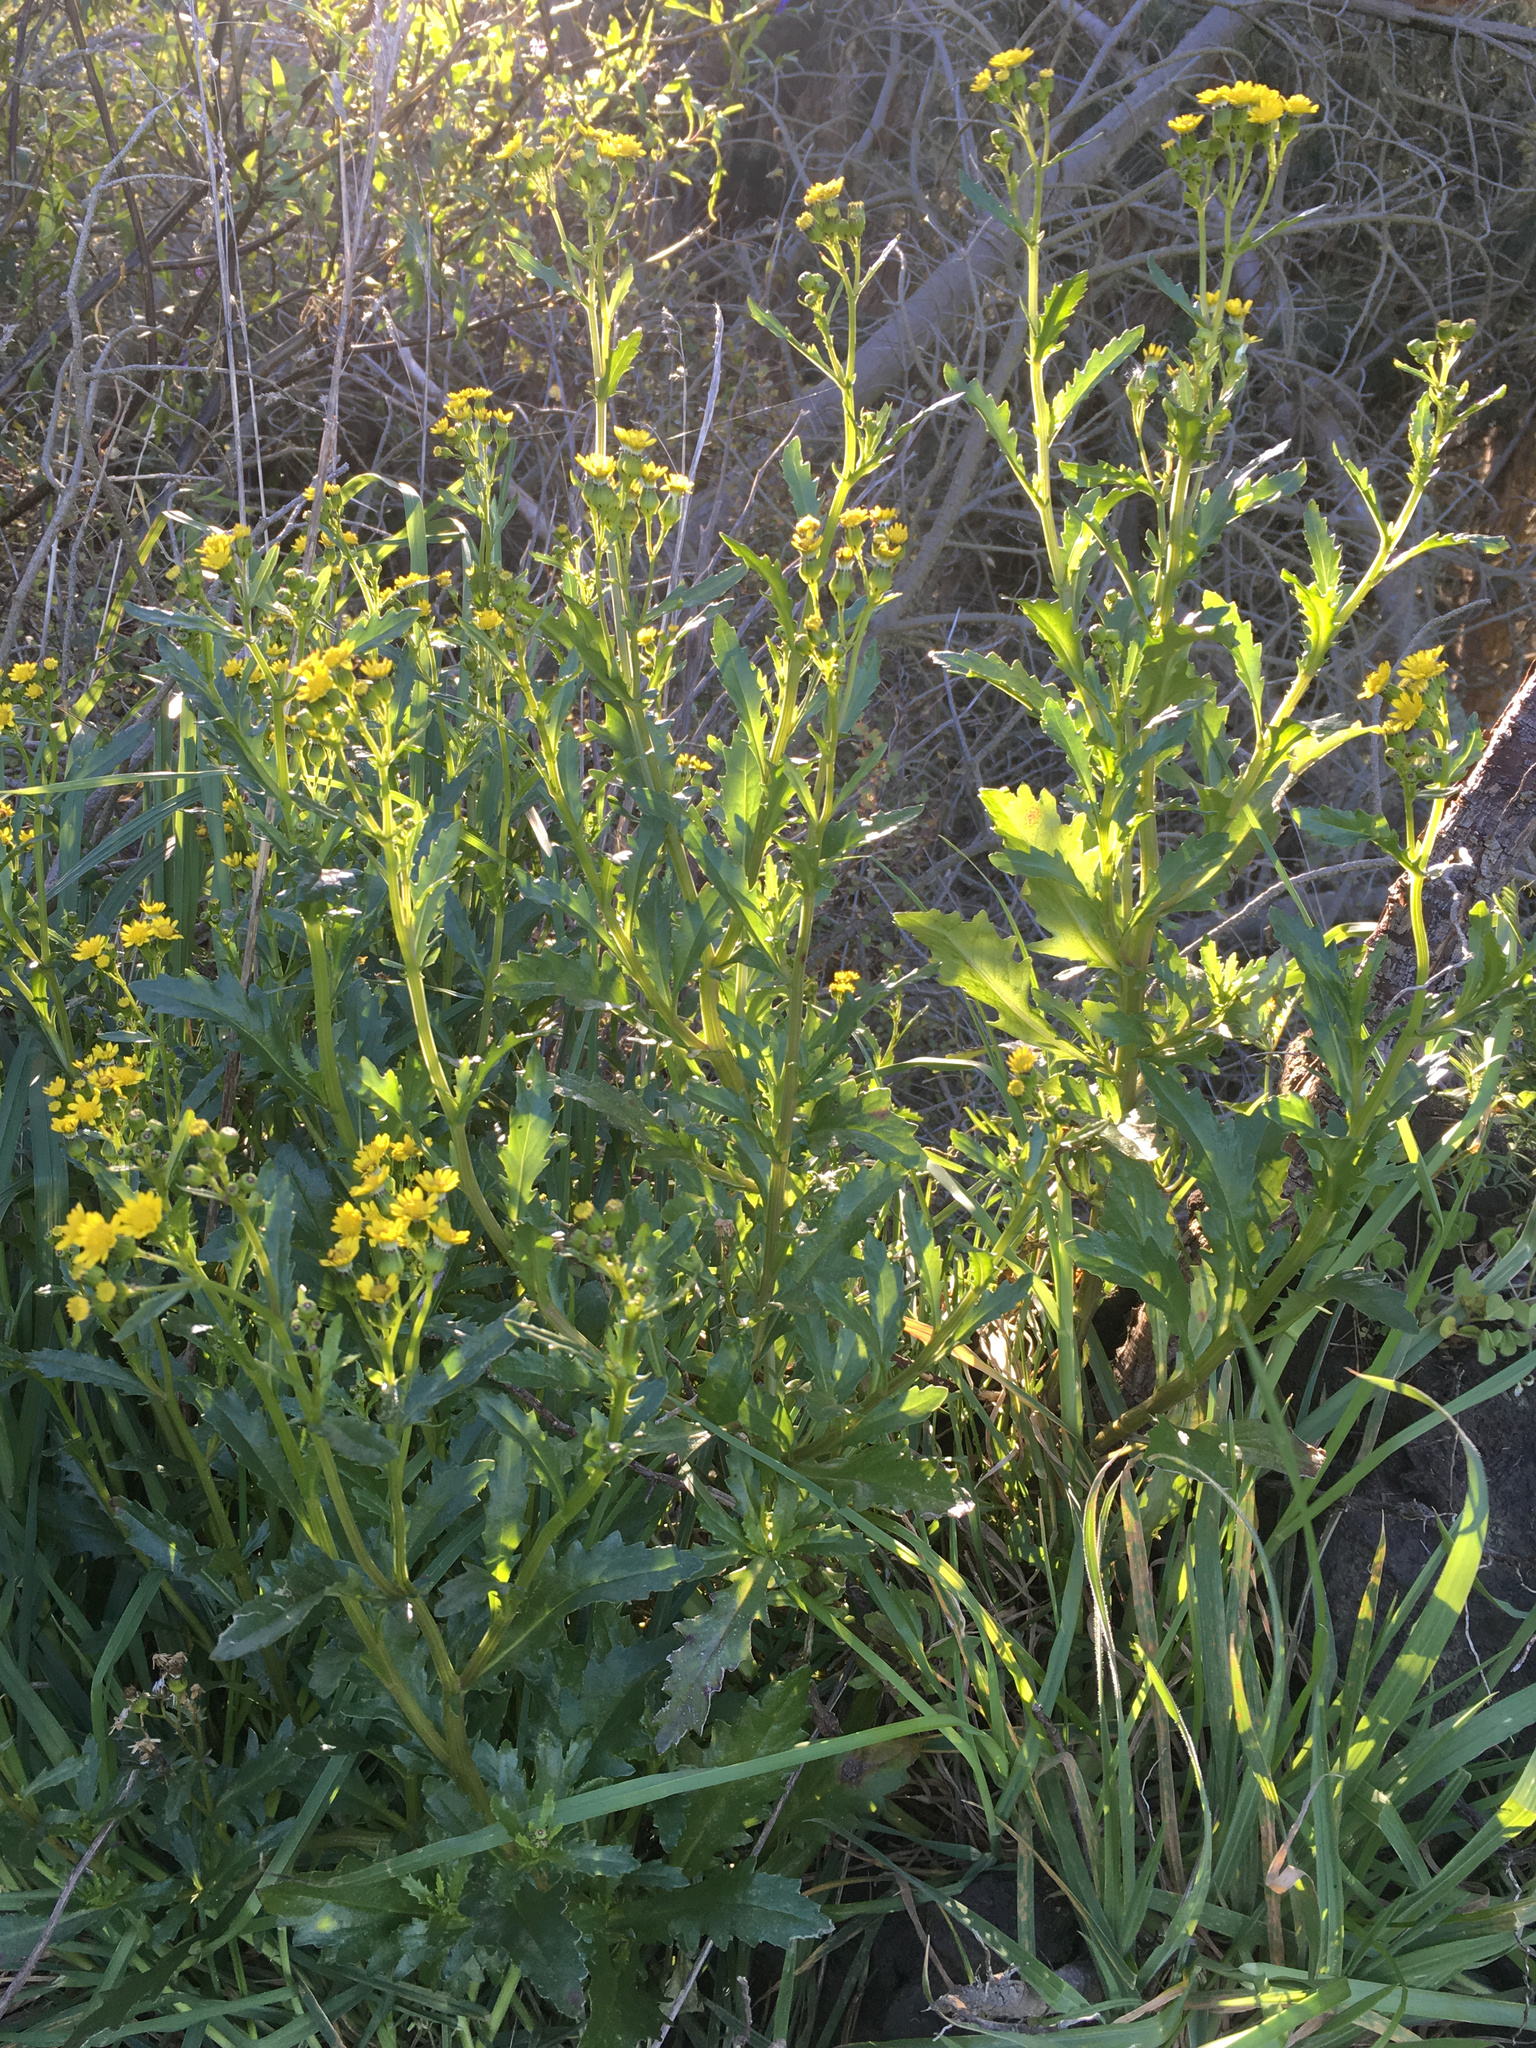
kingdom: Plantae
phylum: Tracheophyta
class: Magnoliopsida
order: Asterales
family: Asteraceae
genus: Senecio
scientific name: Senecio matatini
